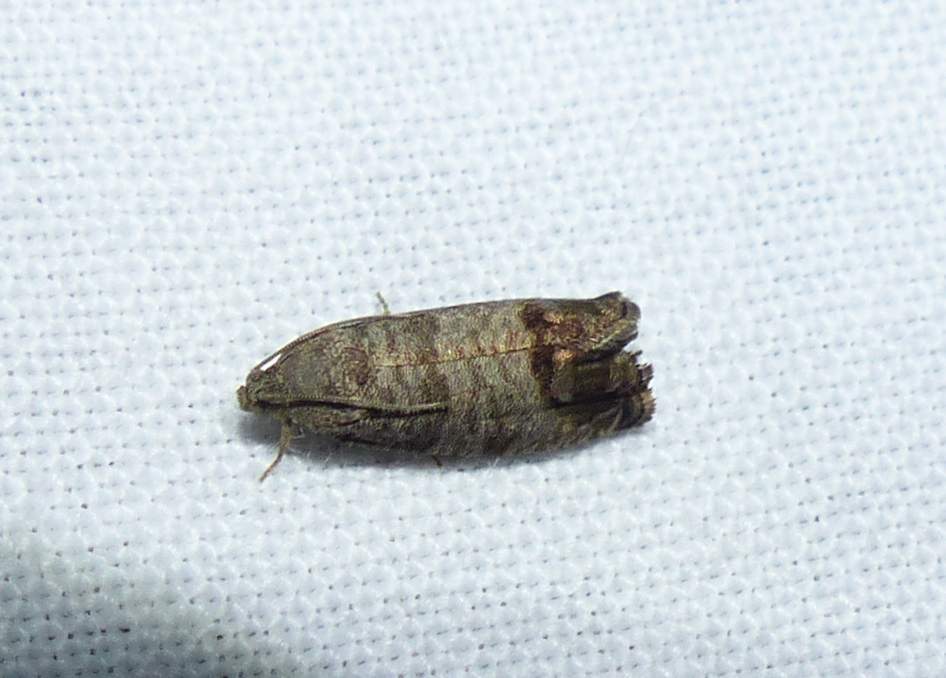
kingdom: Animalia
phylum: Arthropoda
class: Insecta
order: Lepidoptera
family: Tortricidae
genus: Cydia
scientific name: Cydia pomonella
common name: Codling moth
